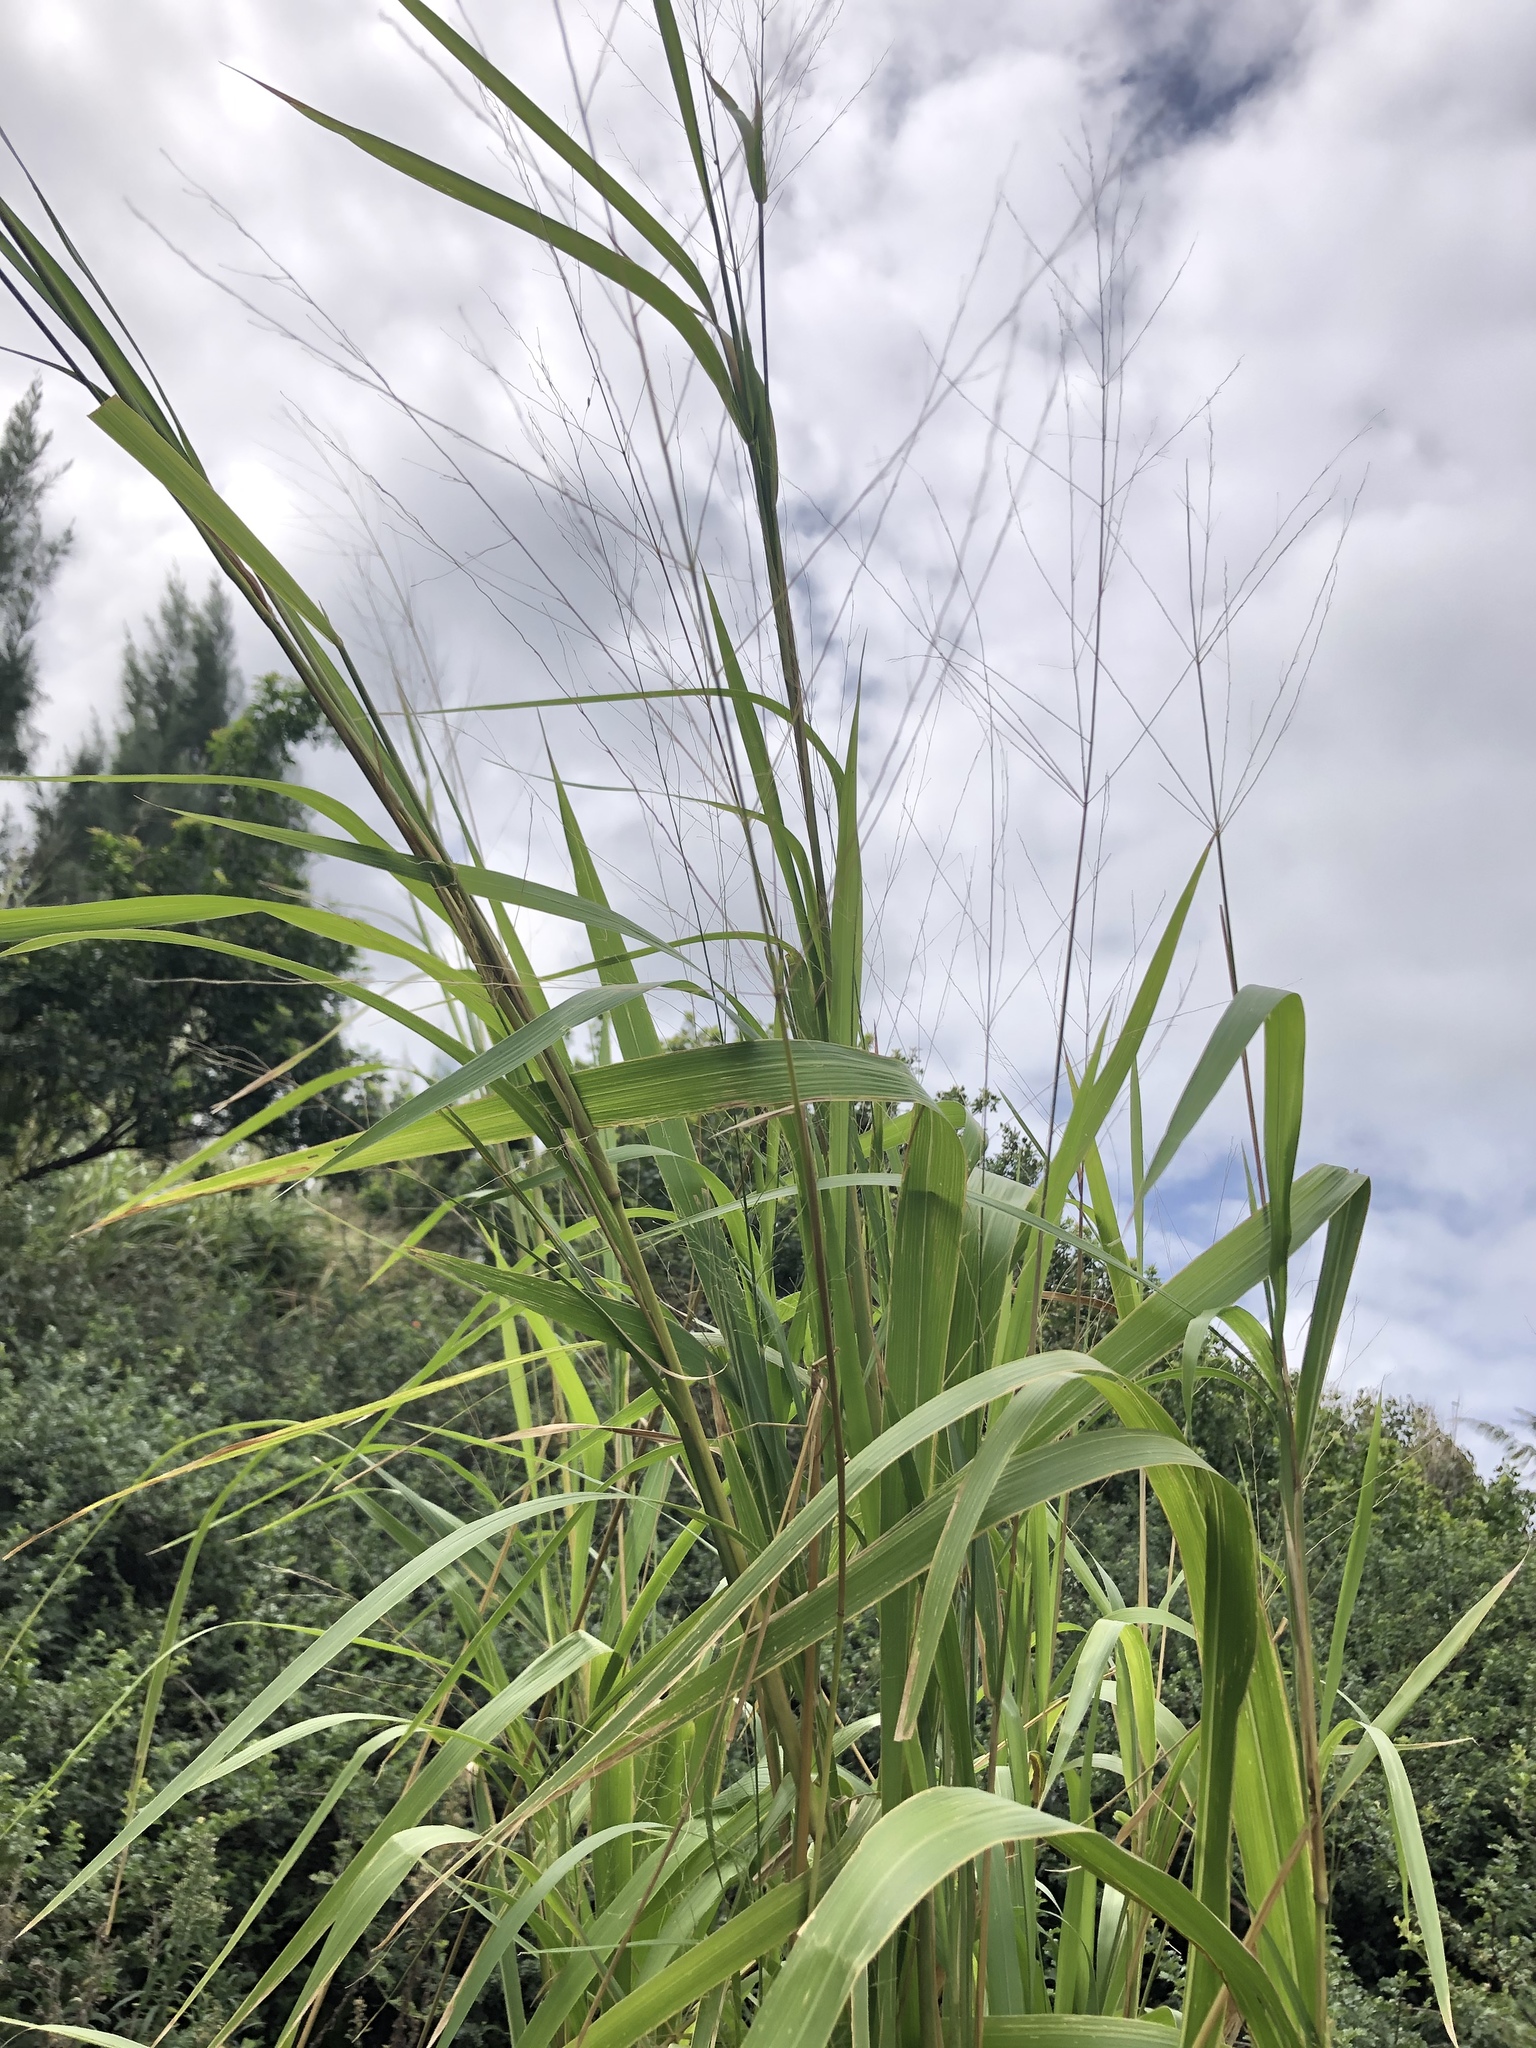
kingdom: Plantae
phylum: Tracheophyta
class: Liliopsida
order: Poales
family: Poaceae
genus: Megathyrsus
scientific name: Megathyrsus maximus
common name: Guineagrass
